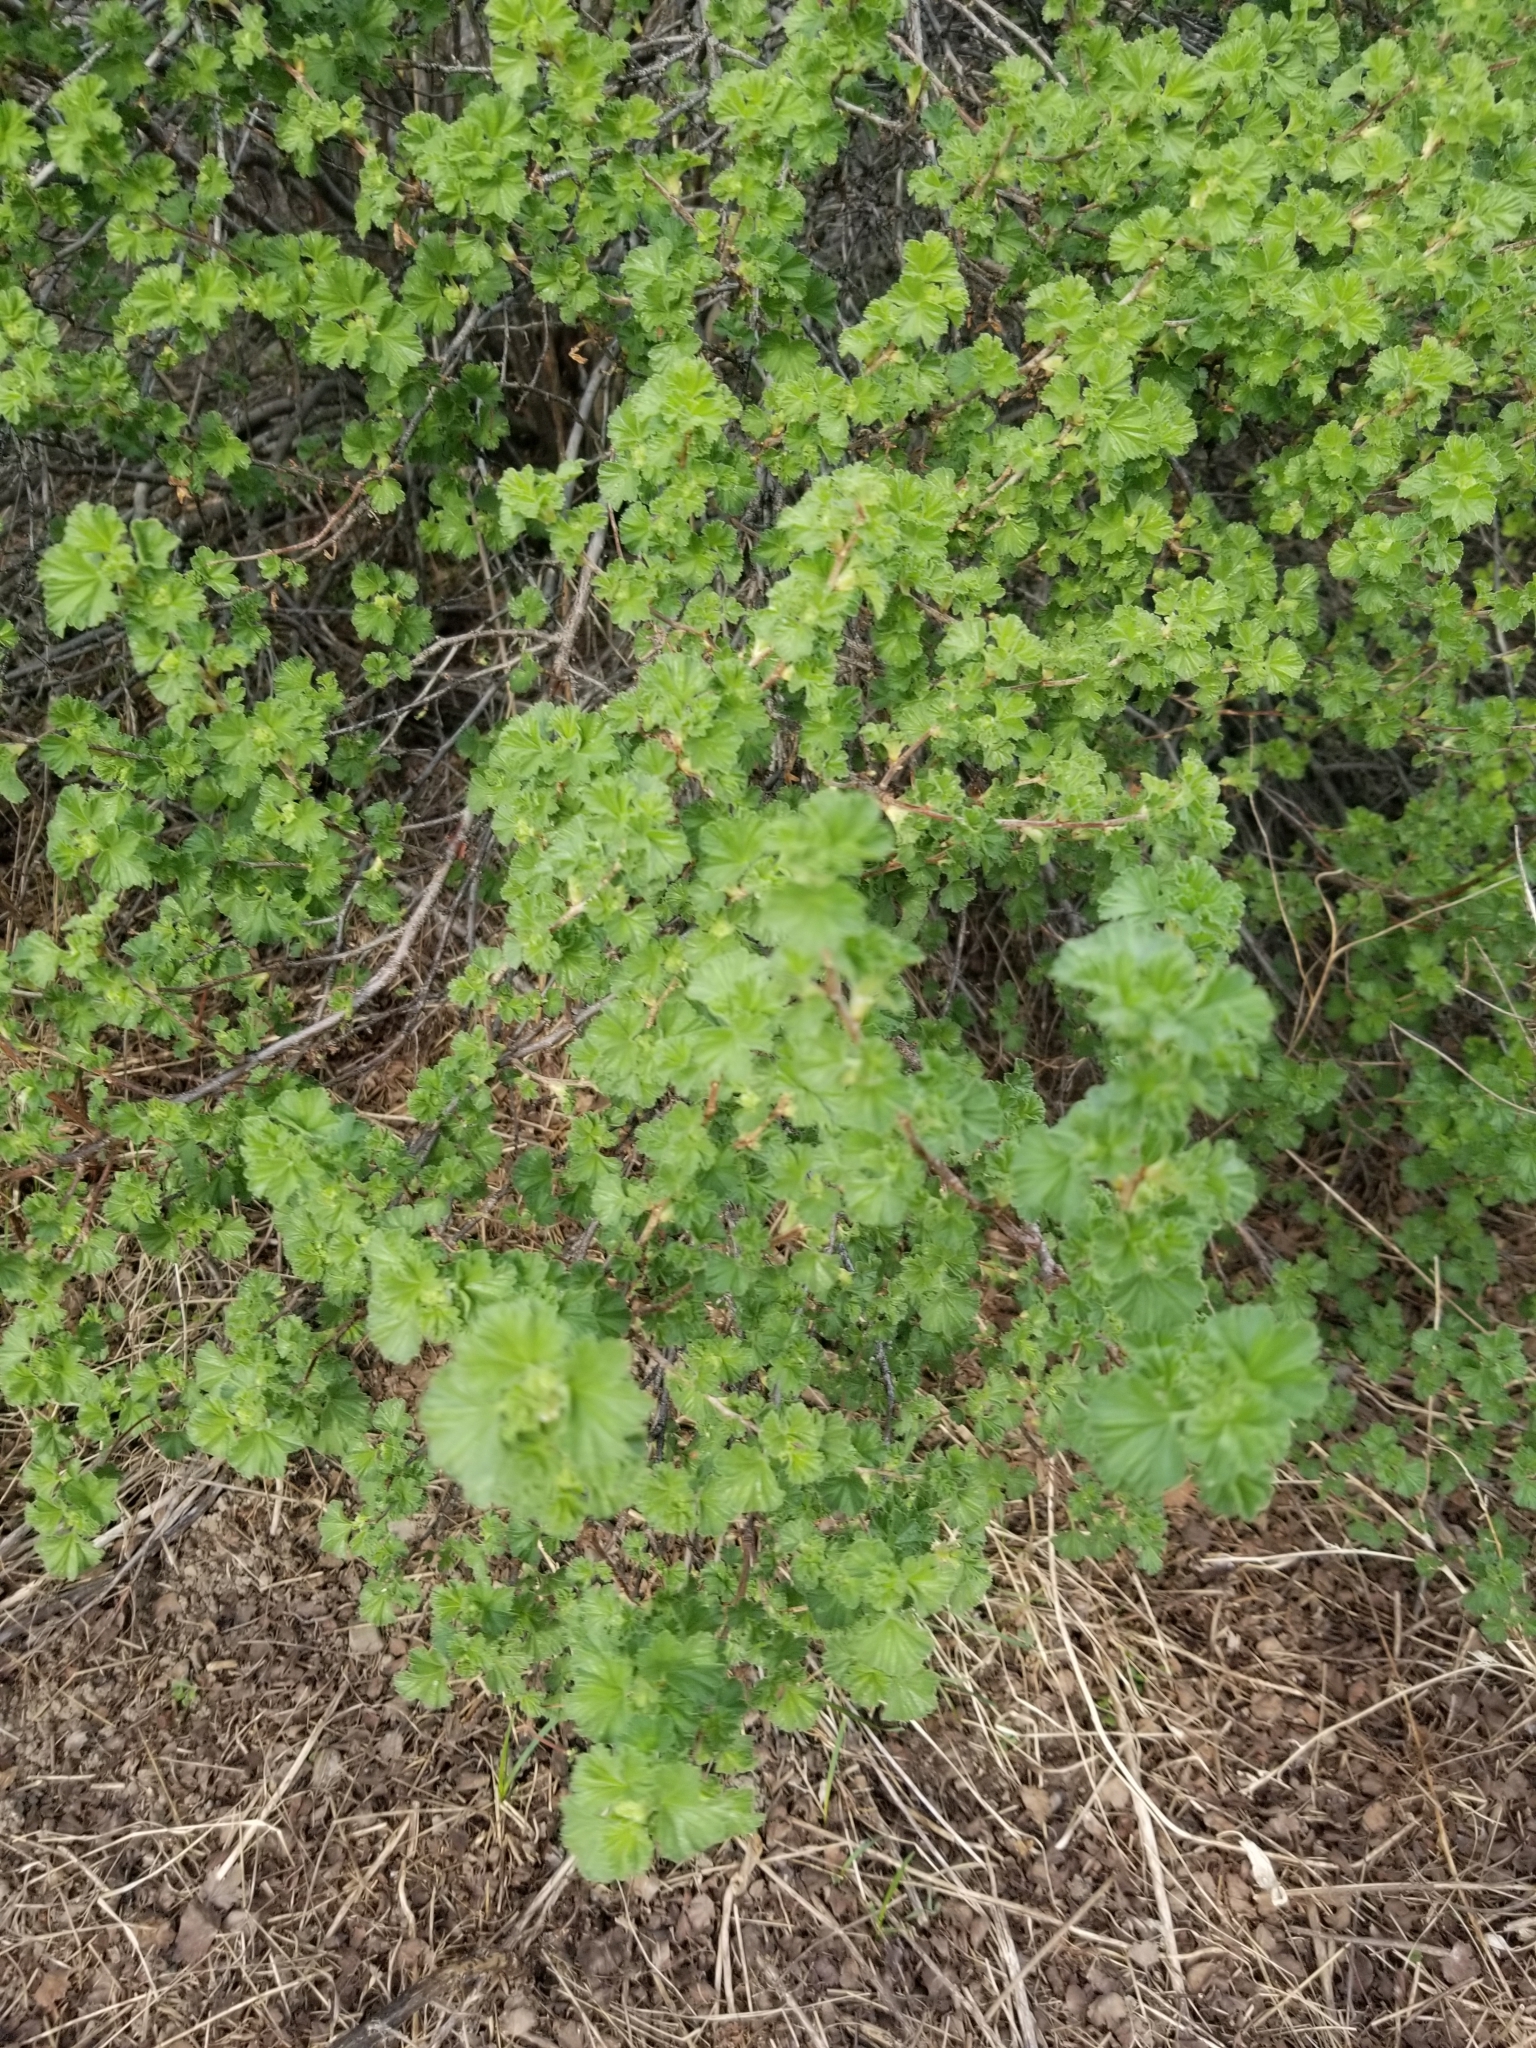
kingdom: Plantae
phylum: Tracheophyta
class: Magnoliopsida
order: Saxifragales
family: Grossulariaceae
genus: Ribes
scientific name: Ribes cereum
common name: Wax currant
